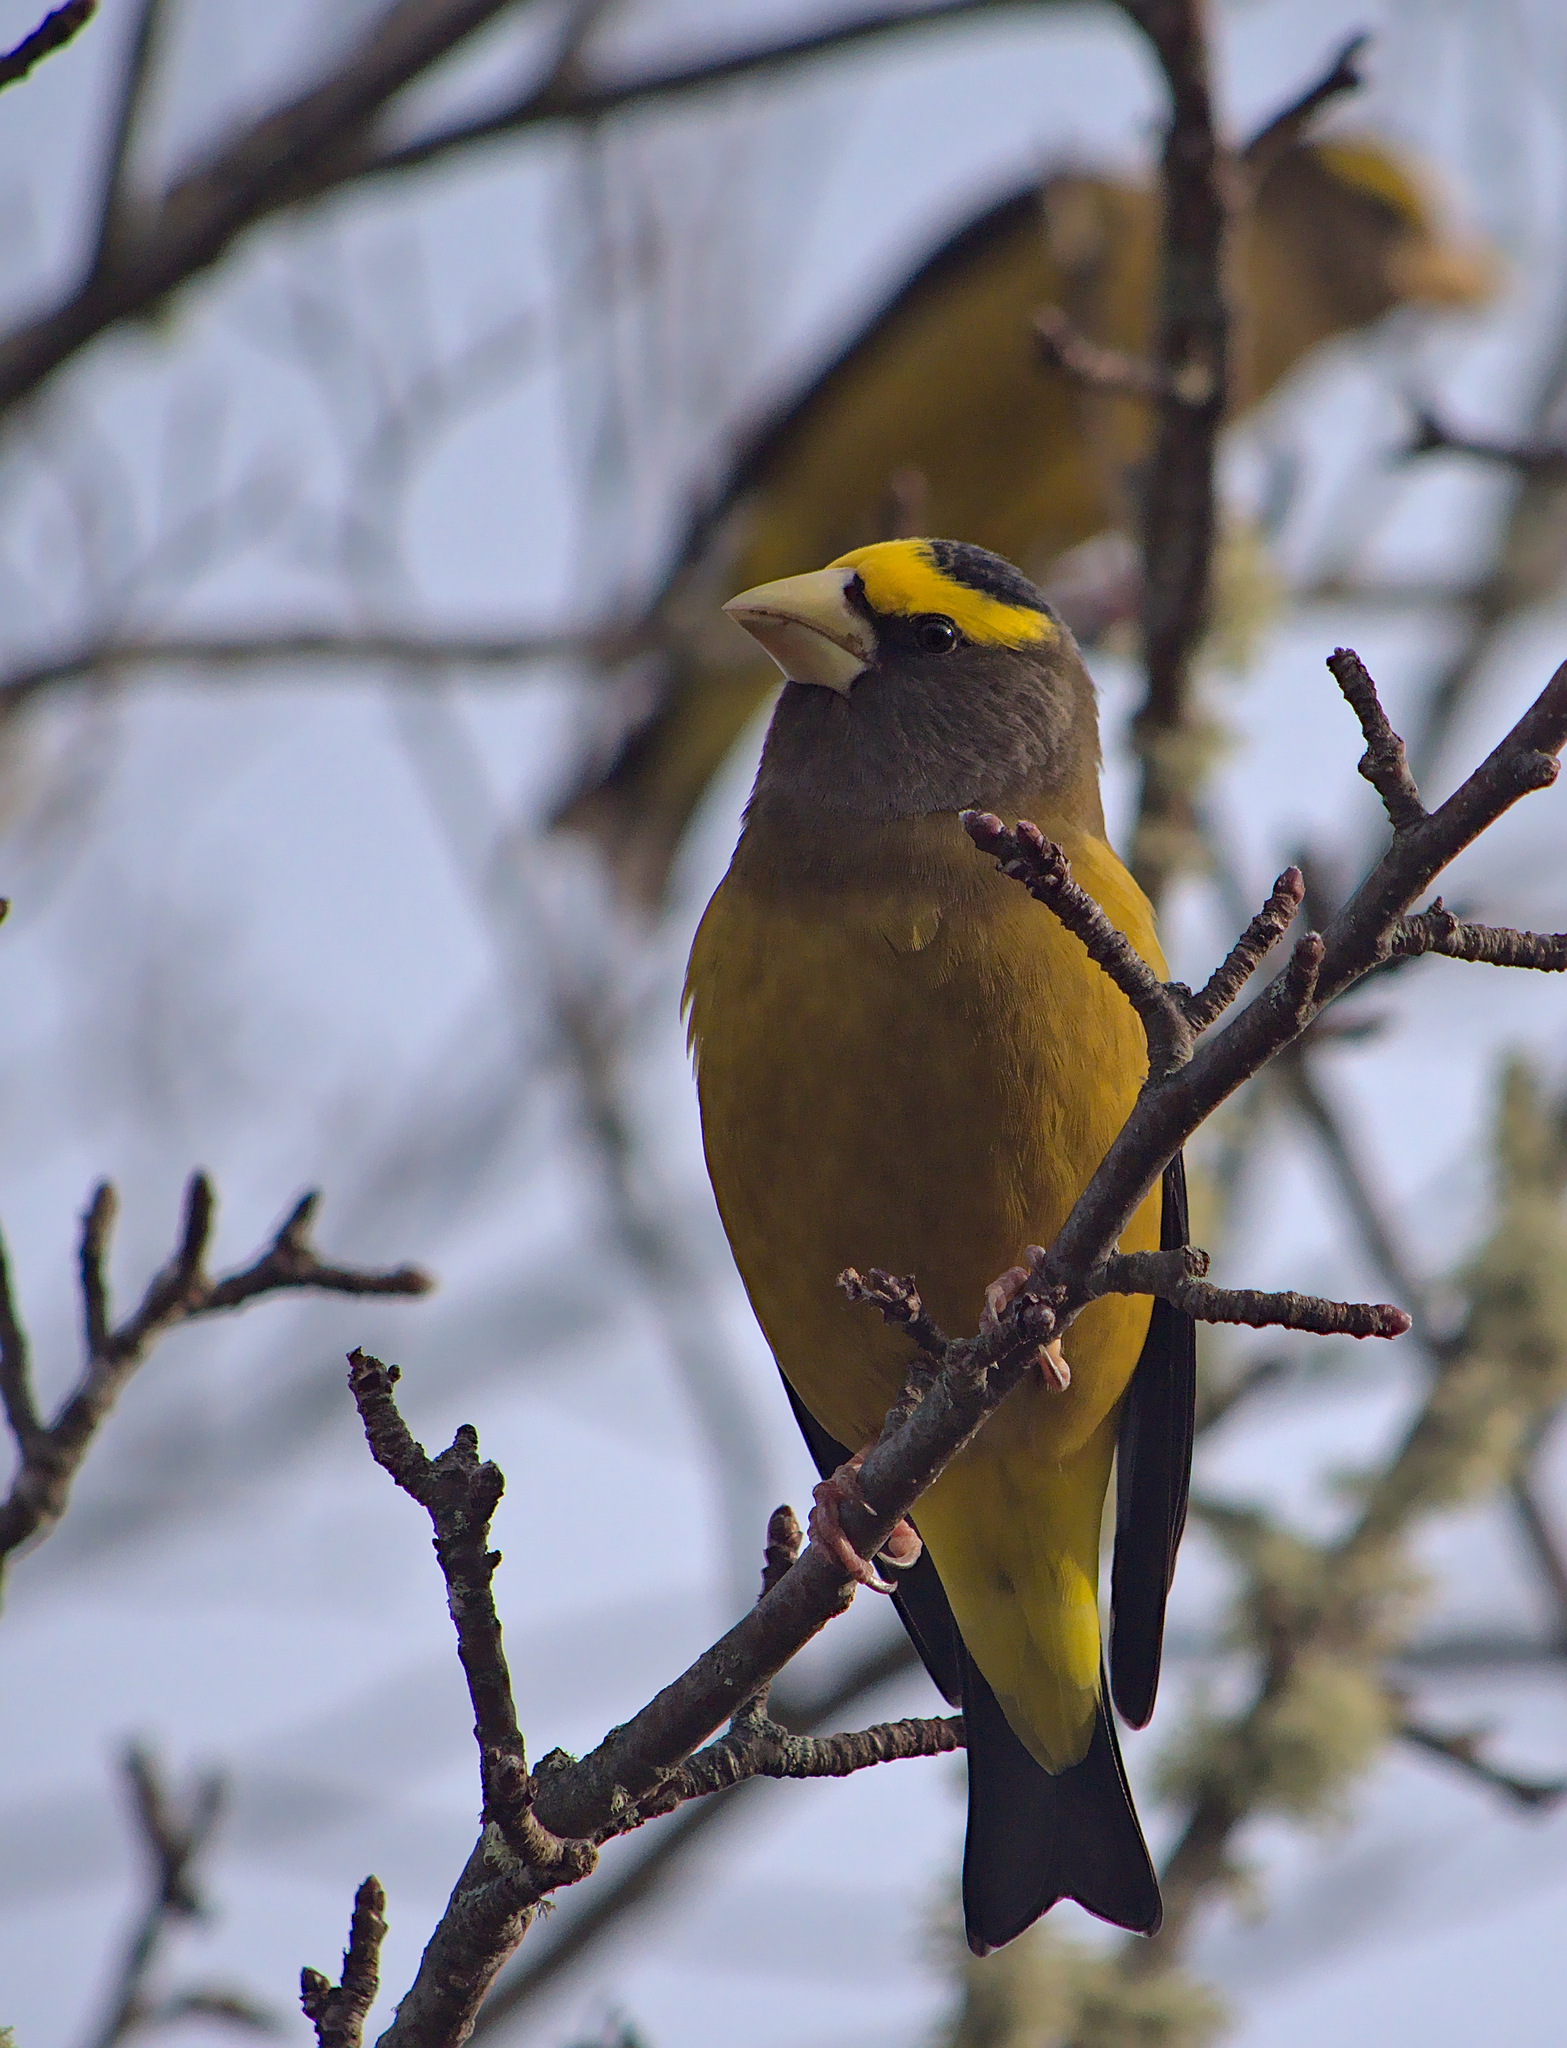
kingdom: Animalia
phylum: Chordata
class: Aves
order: Passeriformes
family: Fringillidae
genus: Hesperiphona
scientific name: Hesperiphona vespertina
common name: Evening grosbeak
